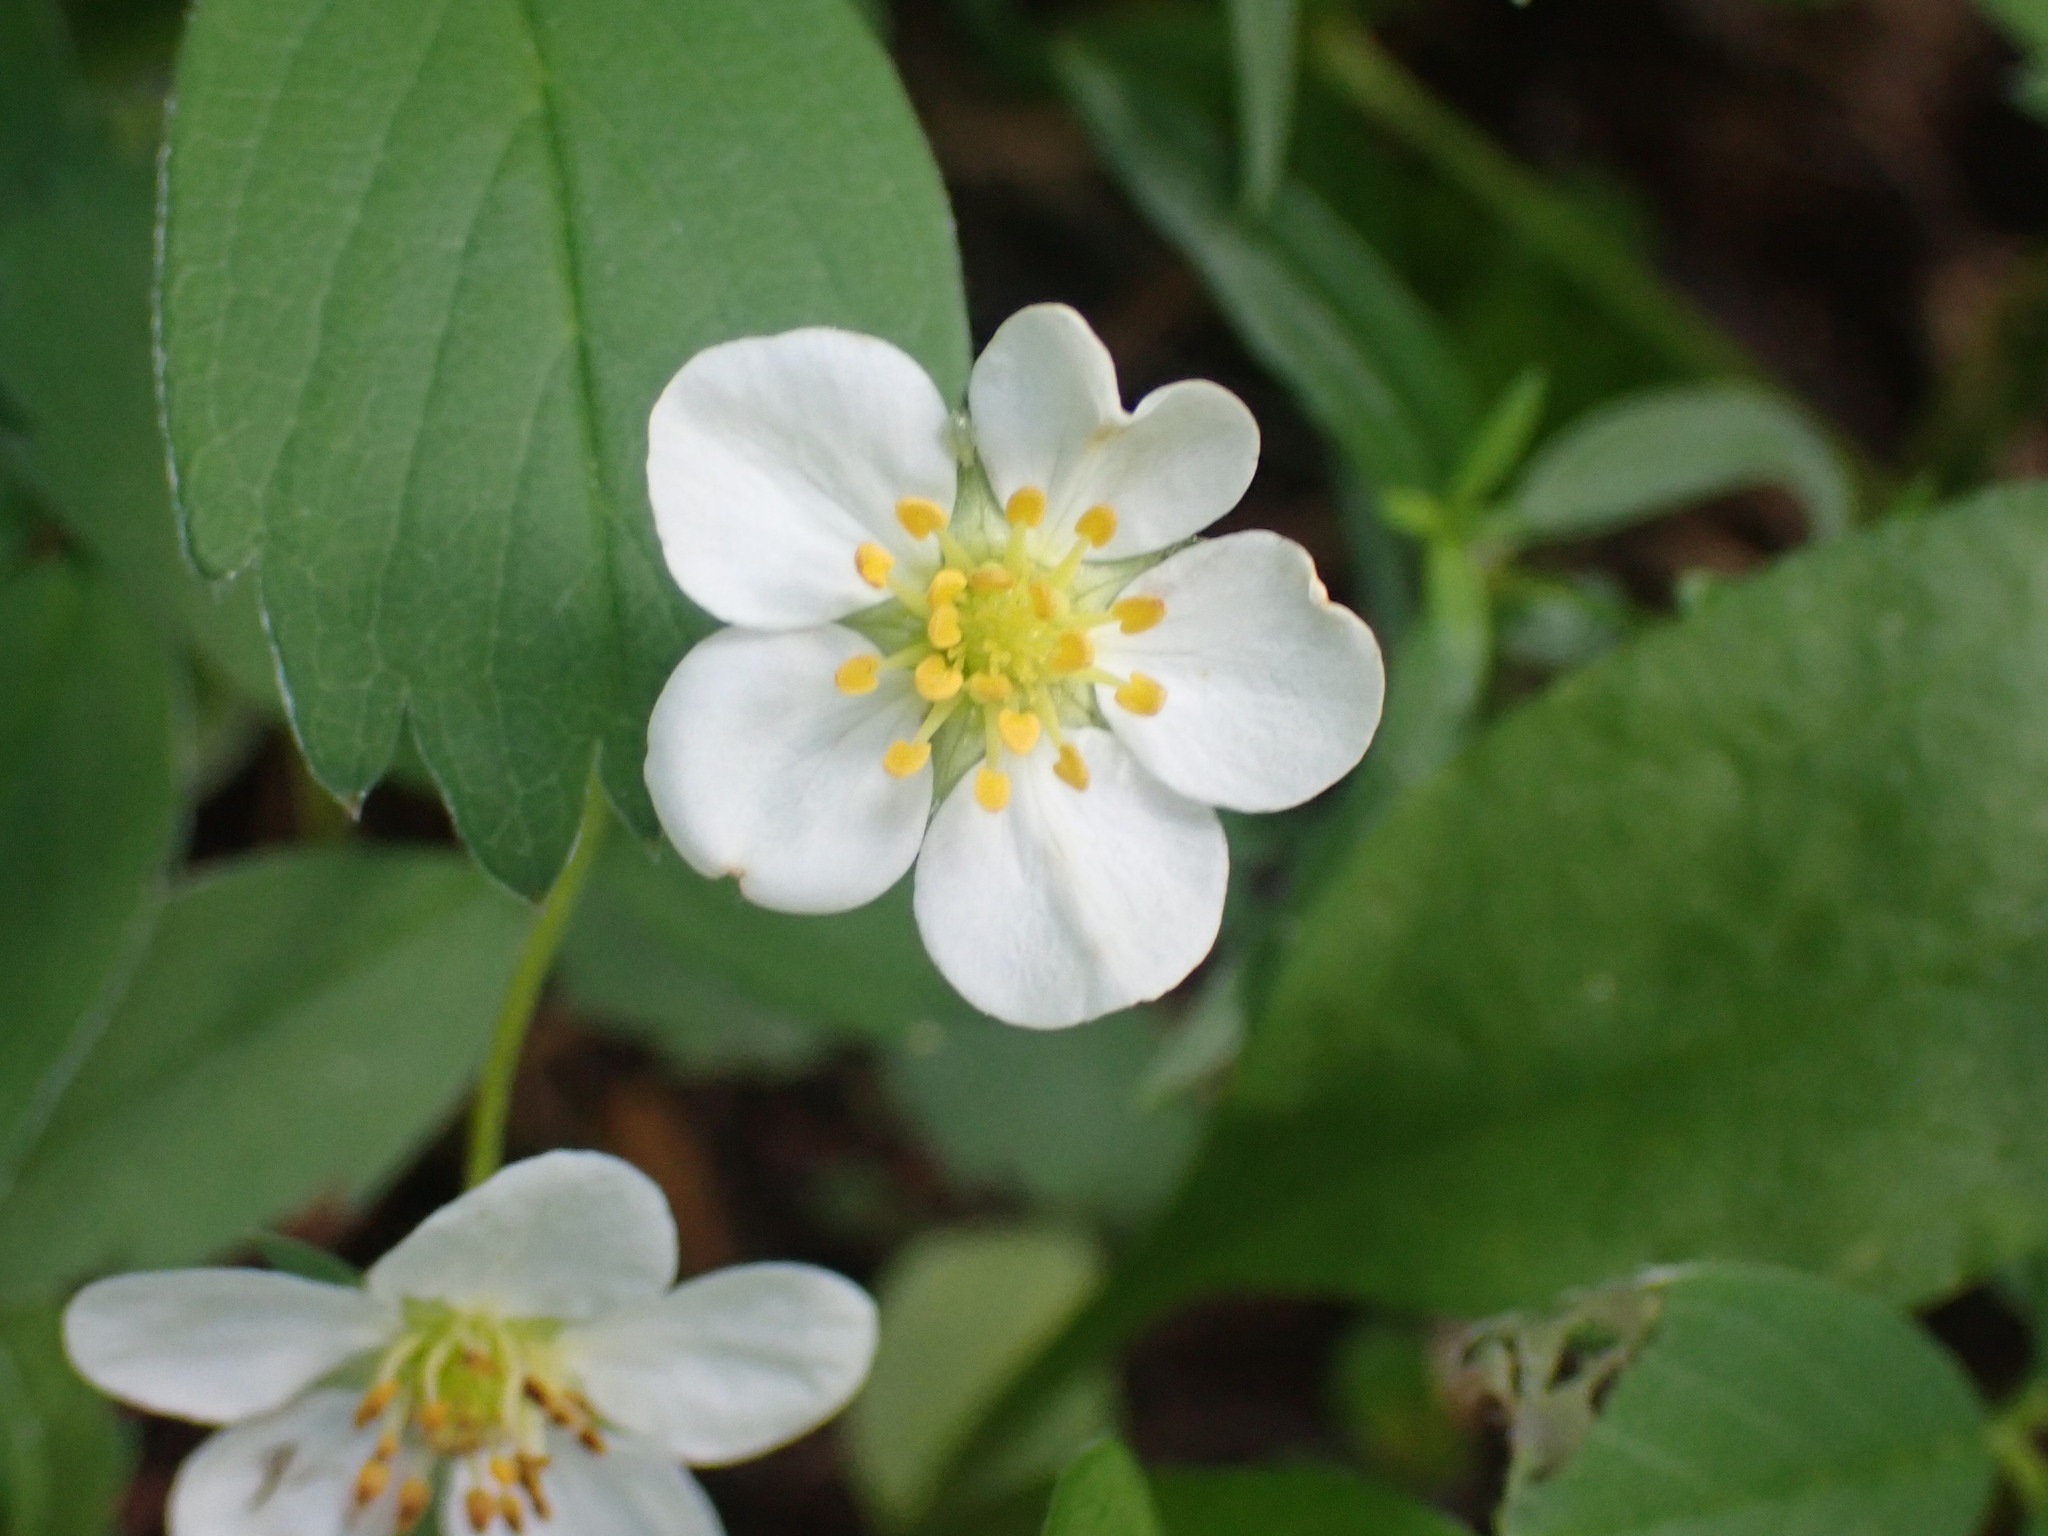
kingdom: Plantae
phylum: Tracheophyta
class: Magnoliopsida
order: Rosales
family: Rosaceae
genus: Fragaria
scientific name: Fragaria virginiana
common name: Thickleaved wild strawberry
